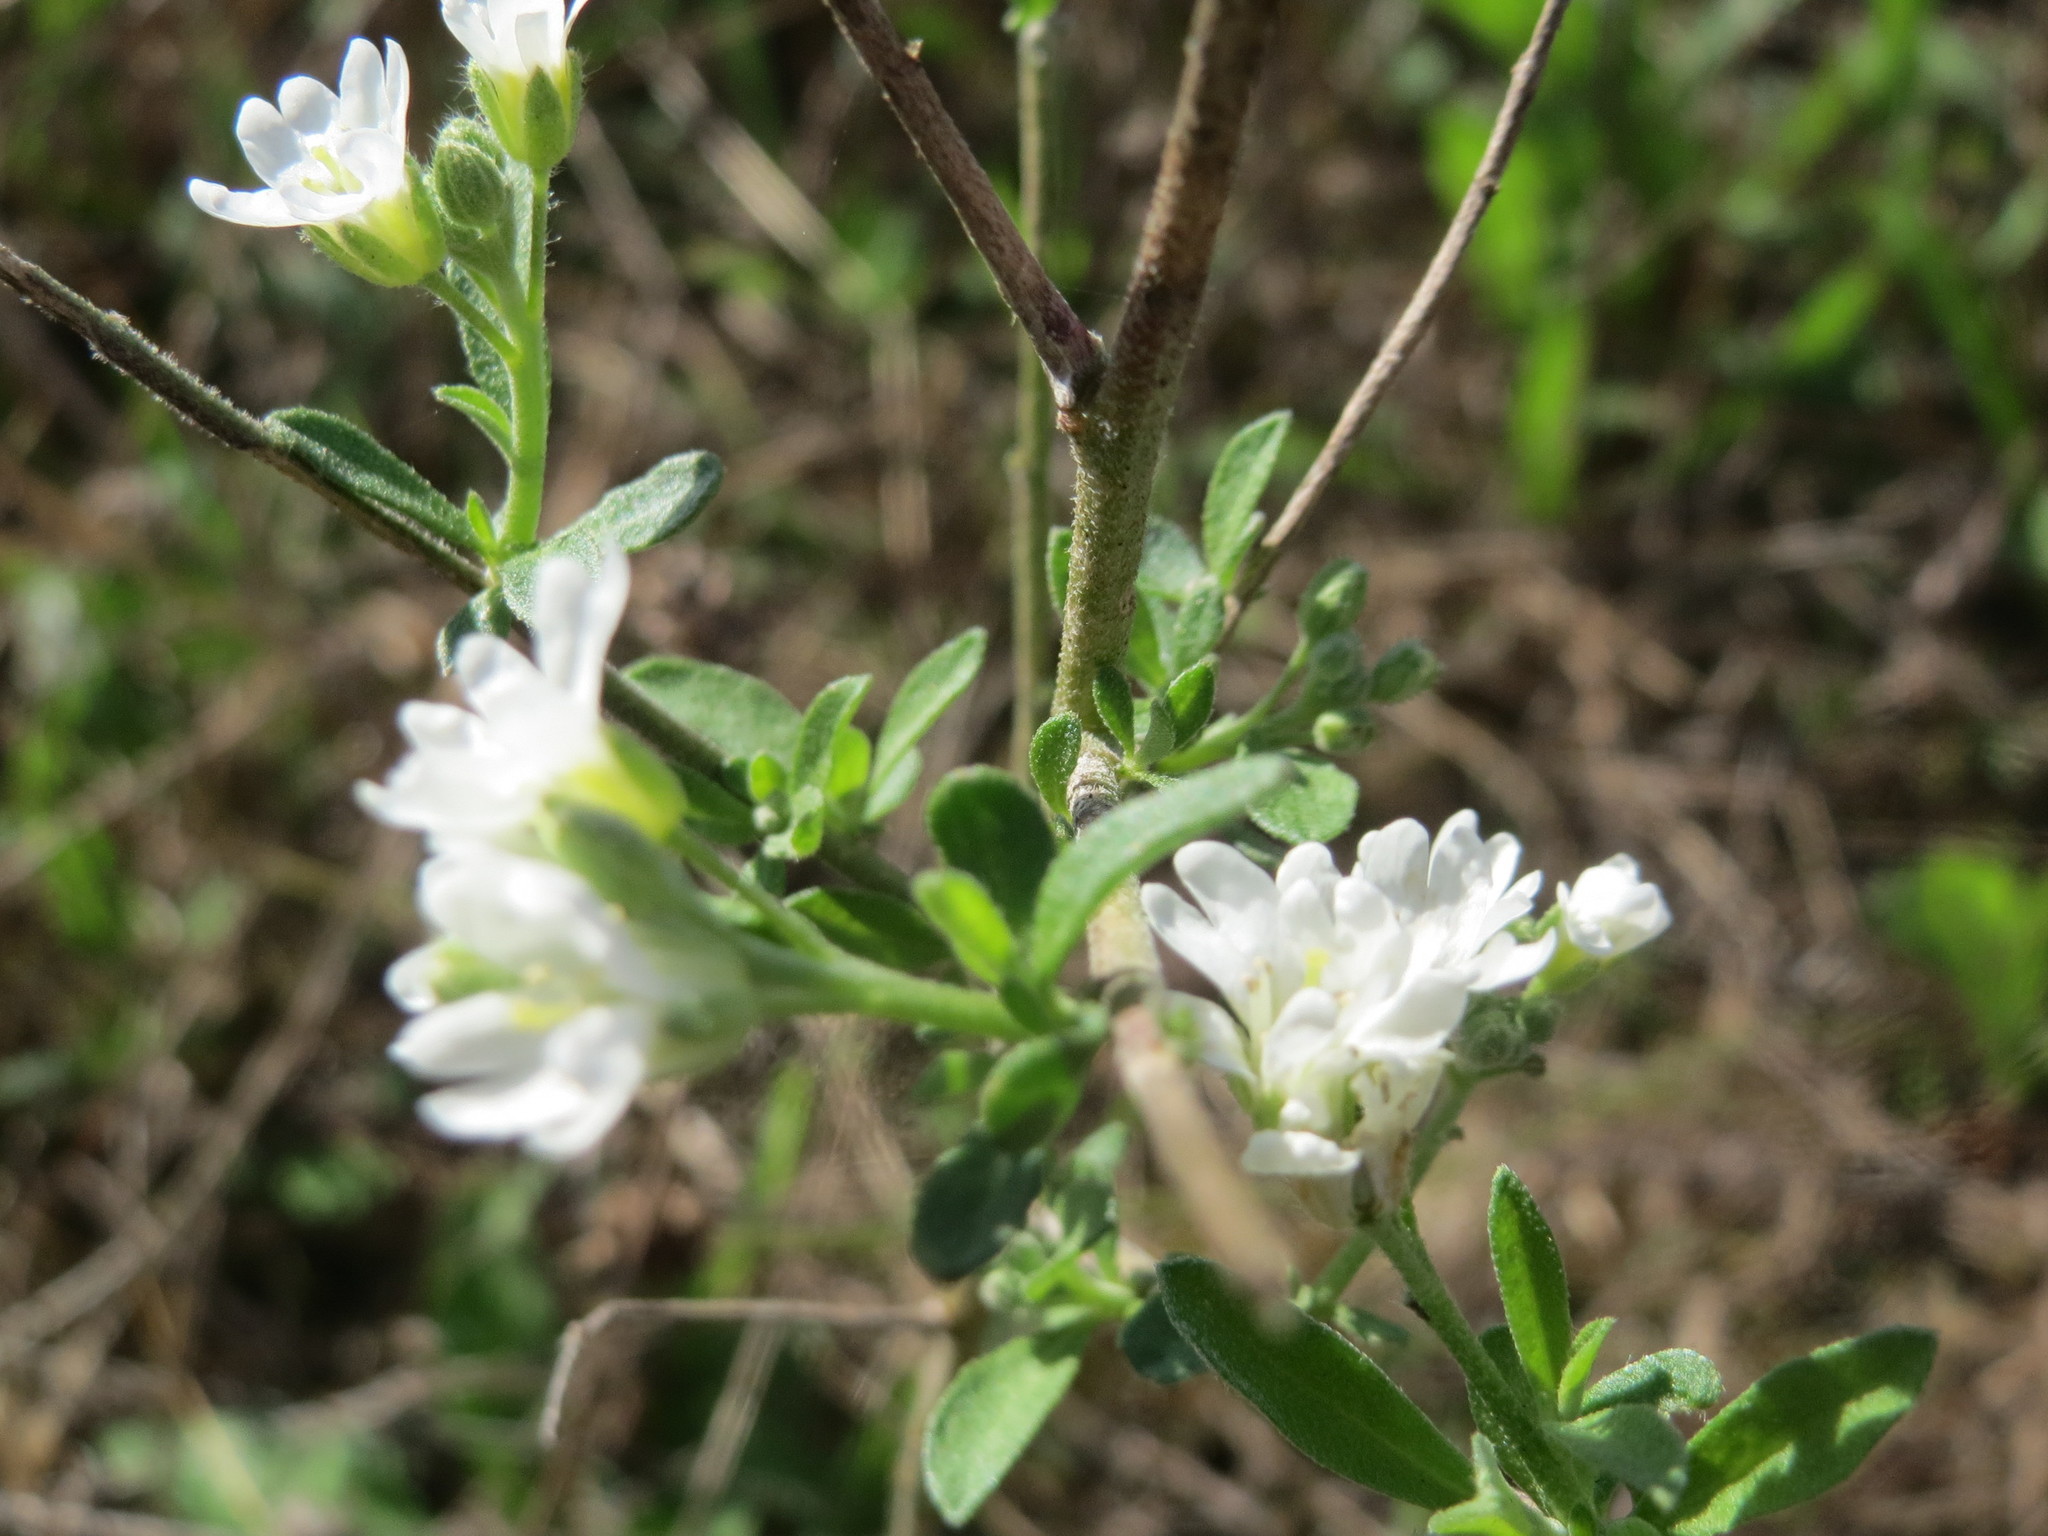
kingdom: Plantae
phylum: Tracheophyta
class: Magnoliopsida
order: Brassicales
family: Brassicaceae
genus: Berteroa
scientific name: Berteroa incana
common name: Hoary alison
